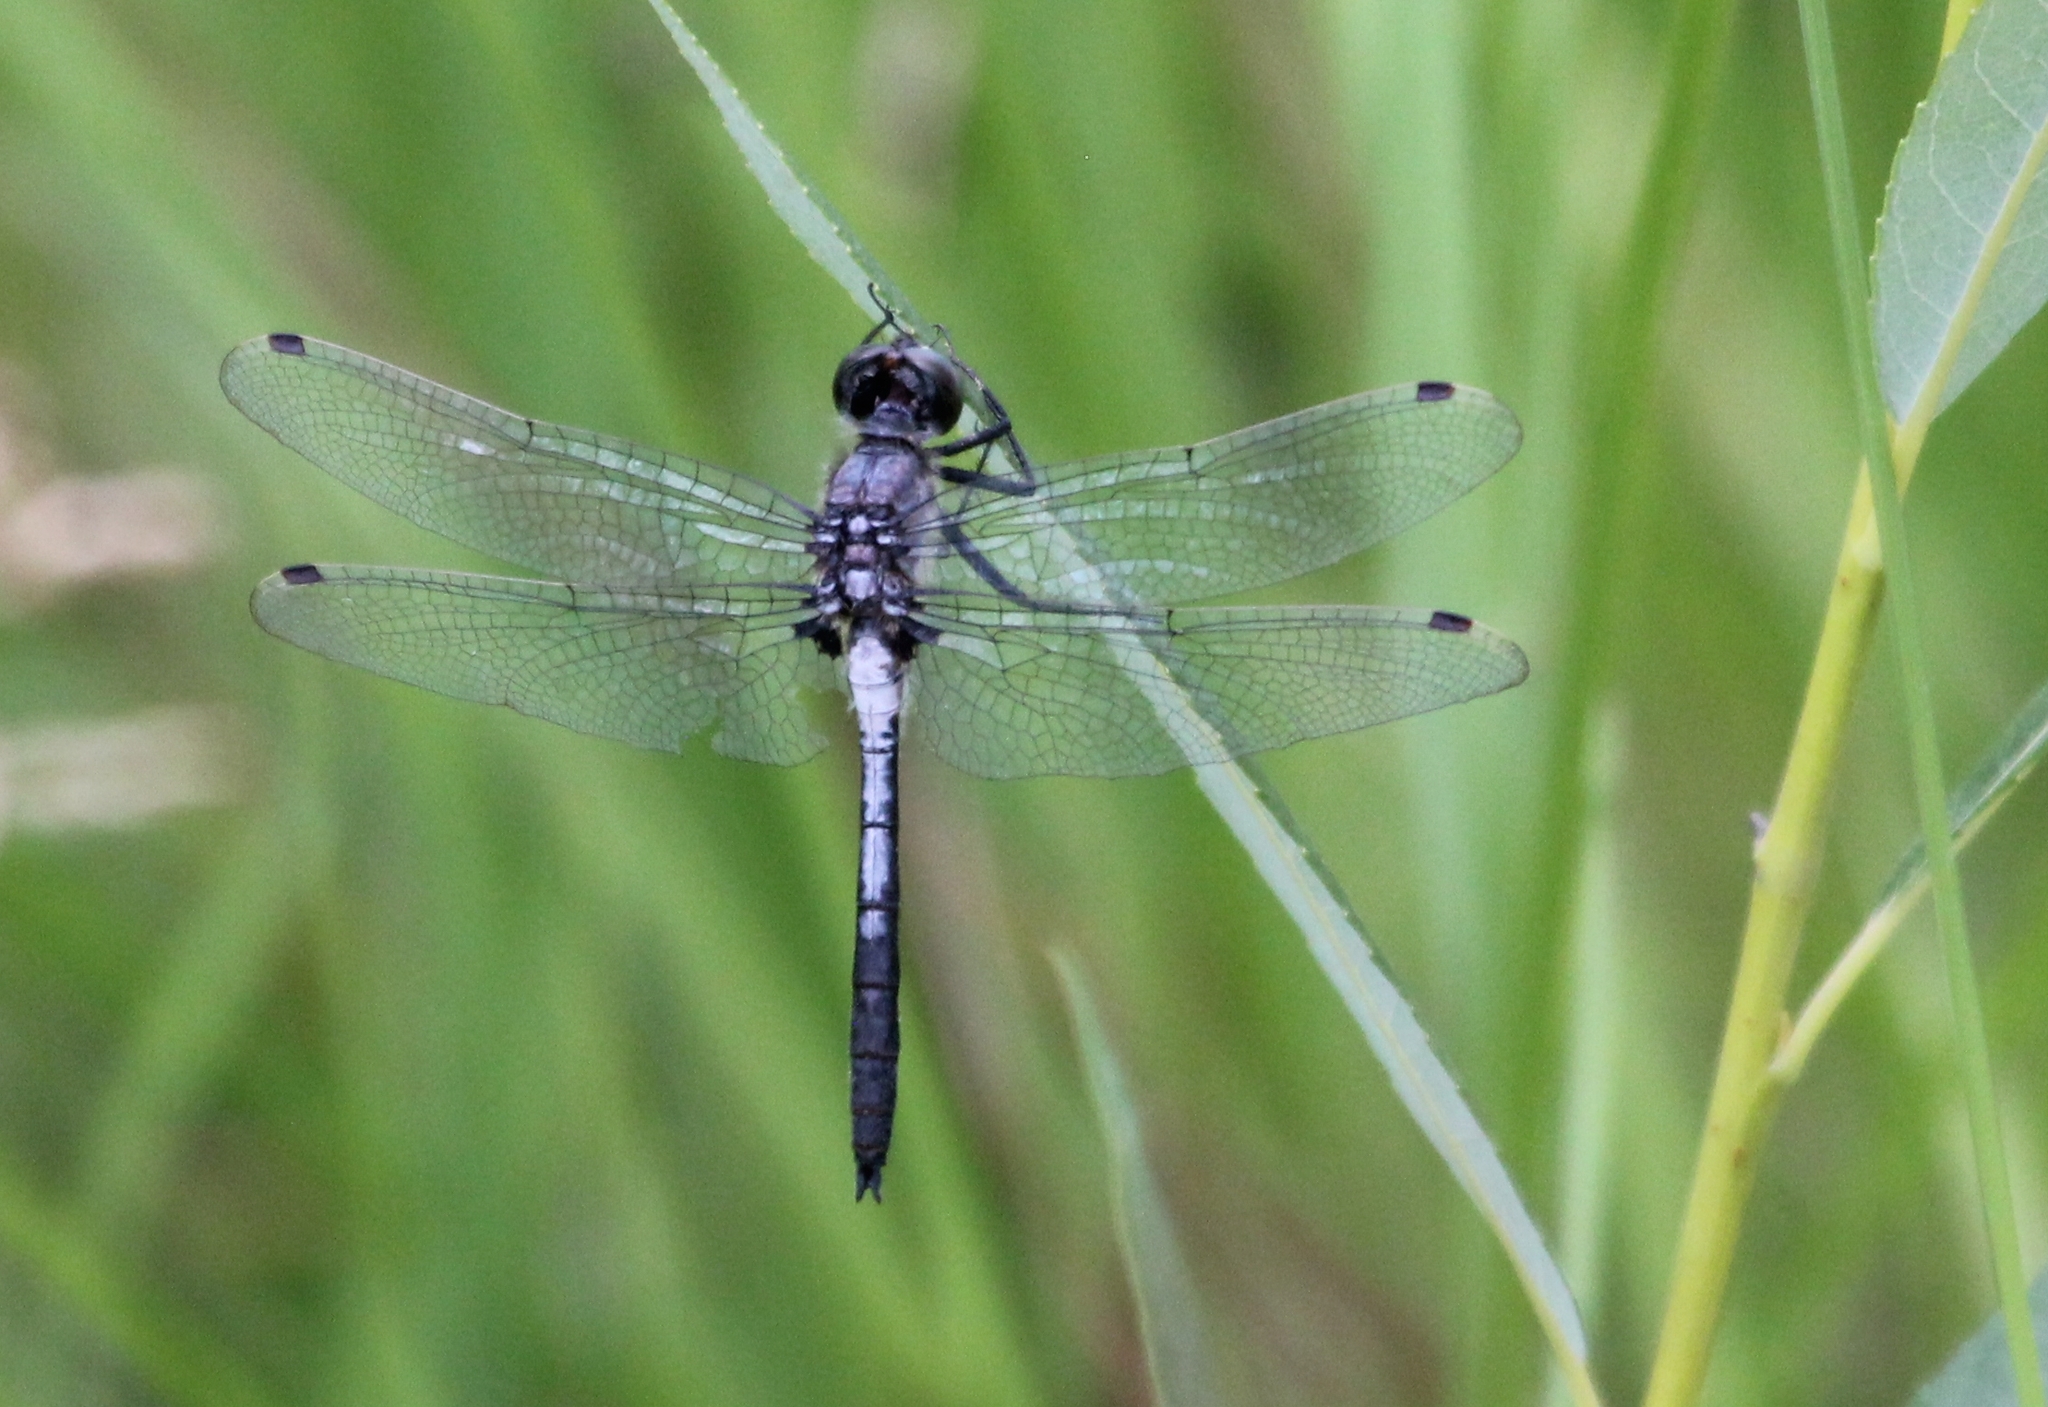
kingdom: Animalia
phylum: Arthropoda
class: Insecta
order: Odonata
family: Libellulidae
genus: Leucorrhinia
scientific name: Leucorrhinia proxima
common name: Belted whiteface
